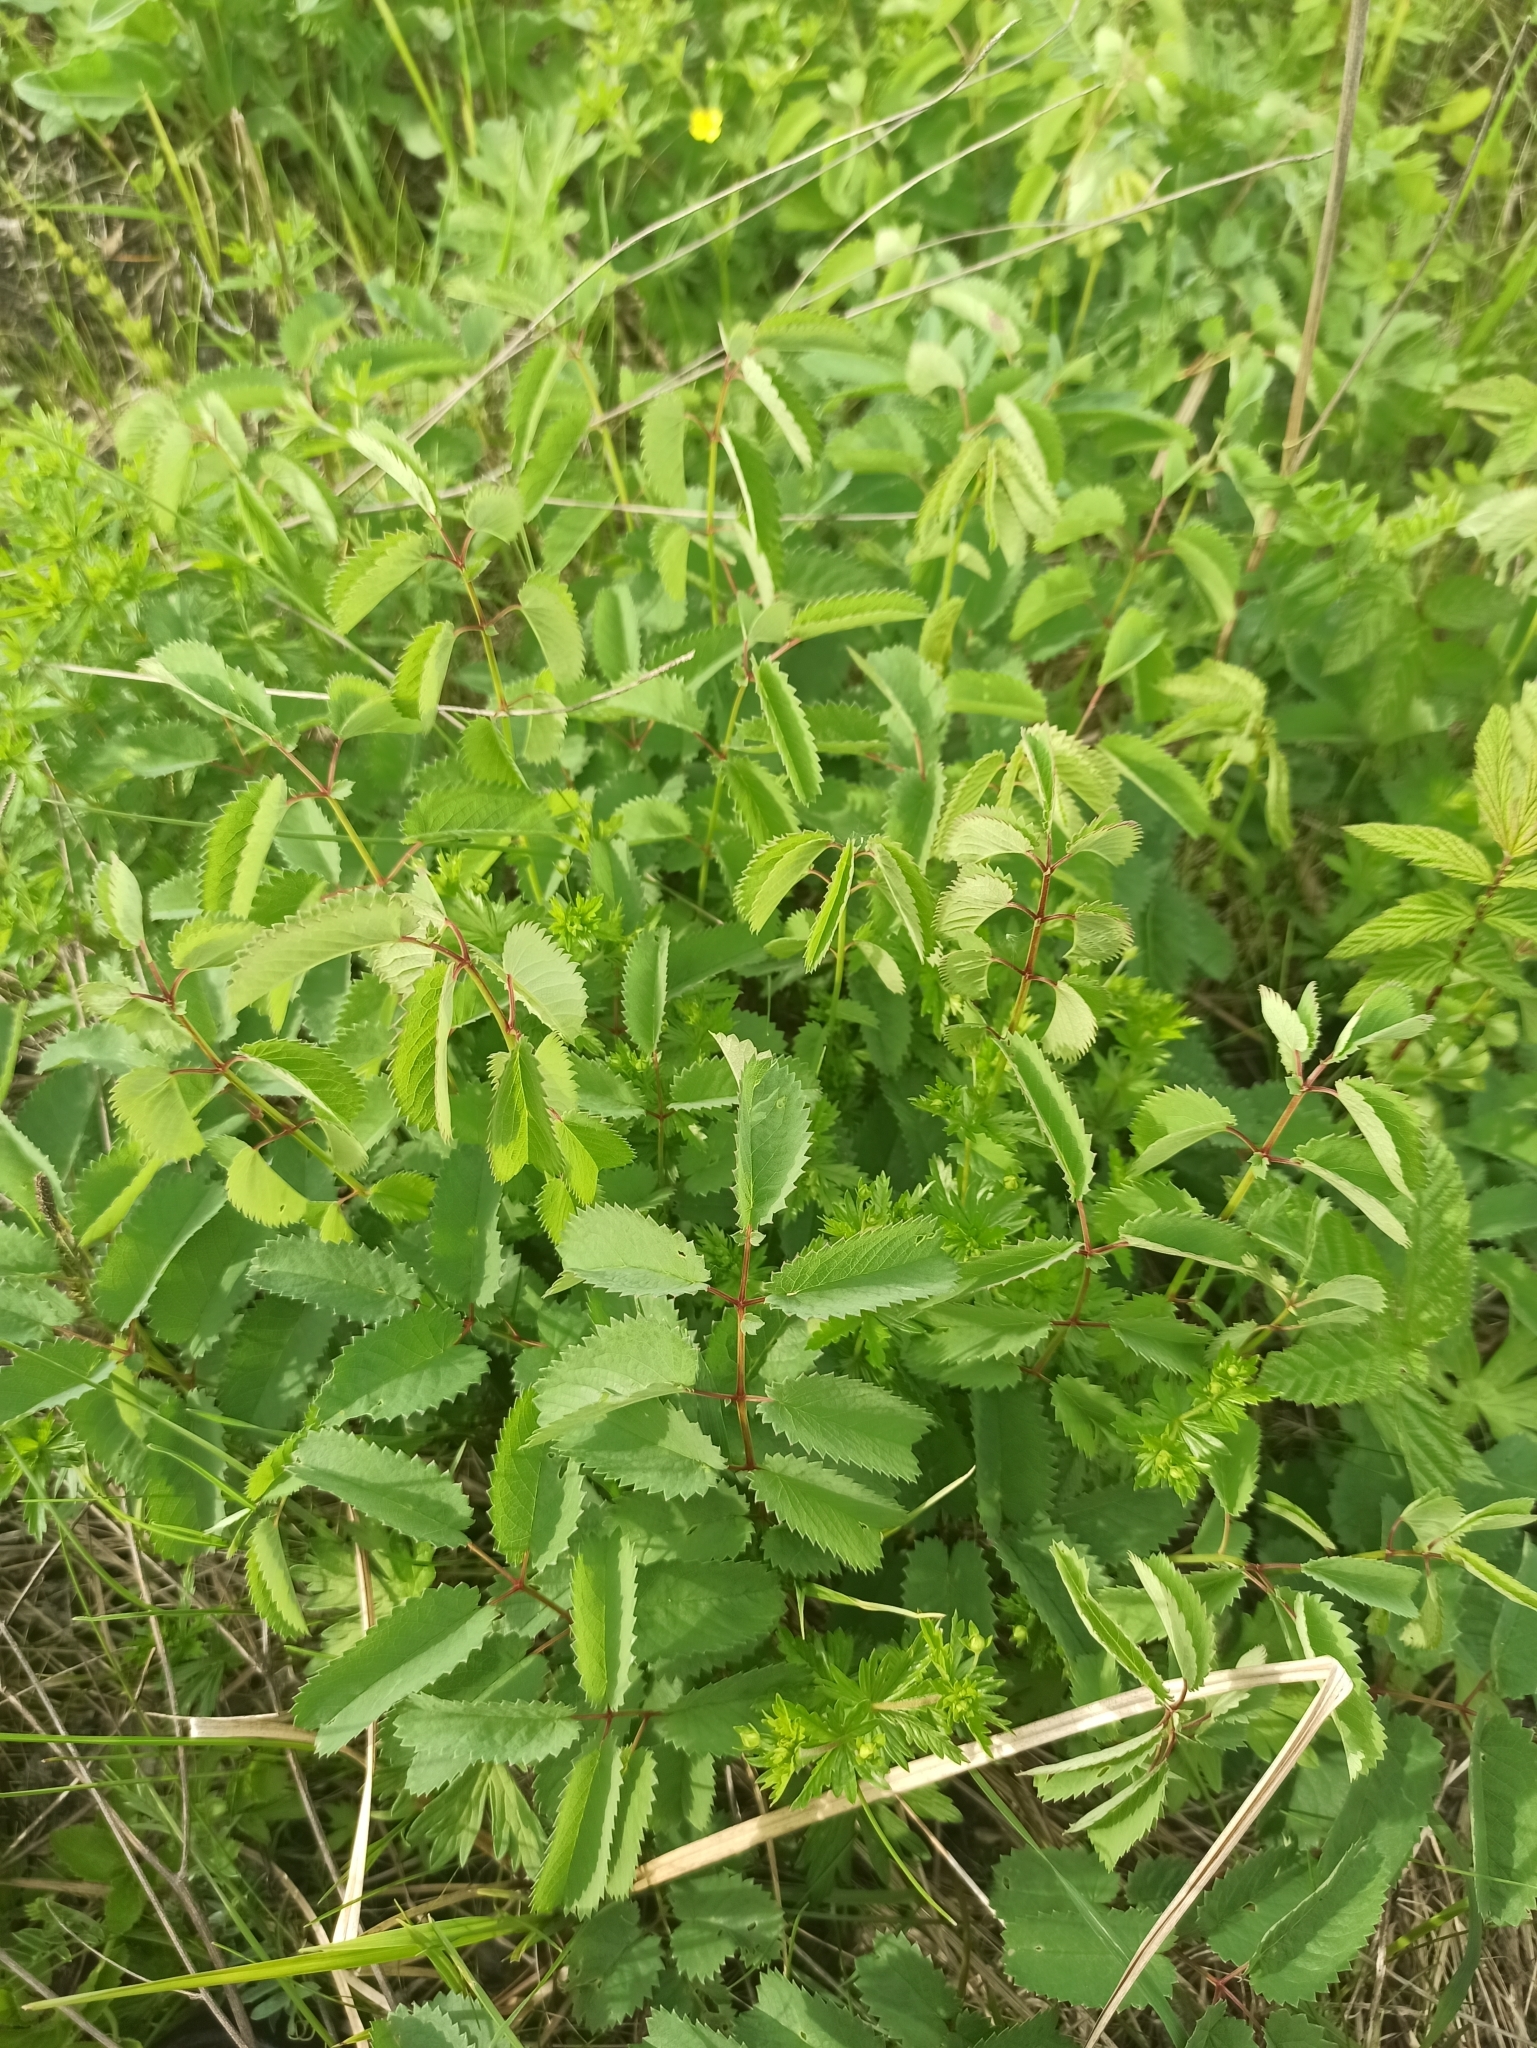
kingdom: Plantae
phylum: Tracheophyta
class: Magnoliopsida
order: Rosales
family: Rosaceae
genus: Sanguisorba
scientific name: Sanguisorba officinalis
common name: Great burnet
